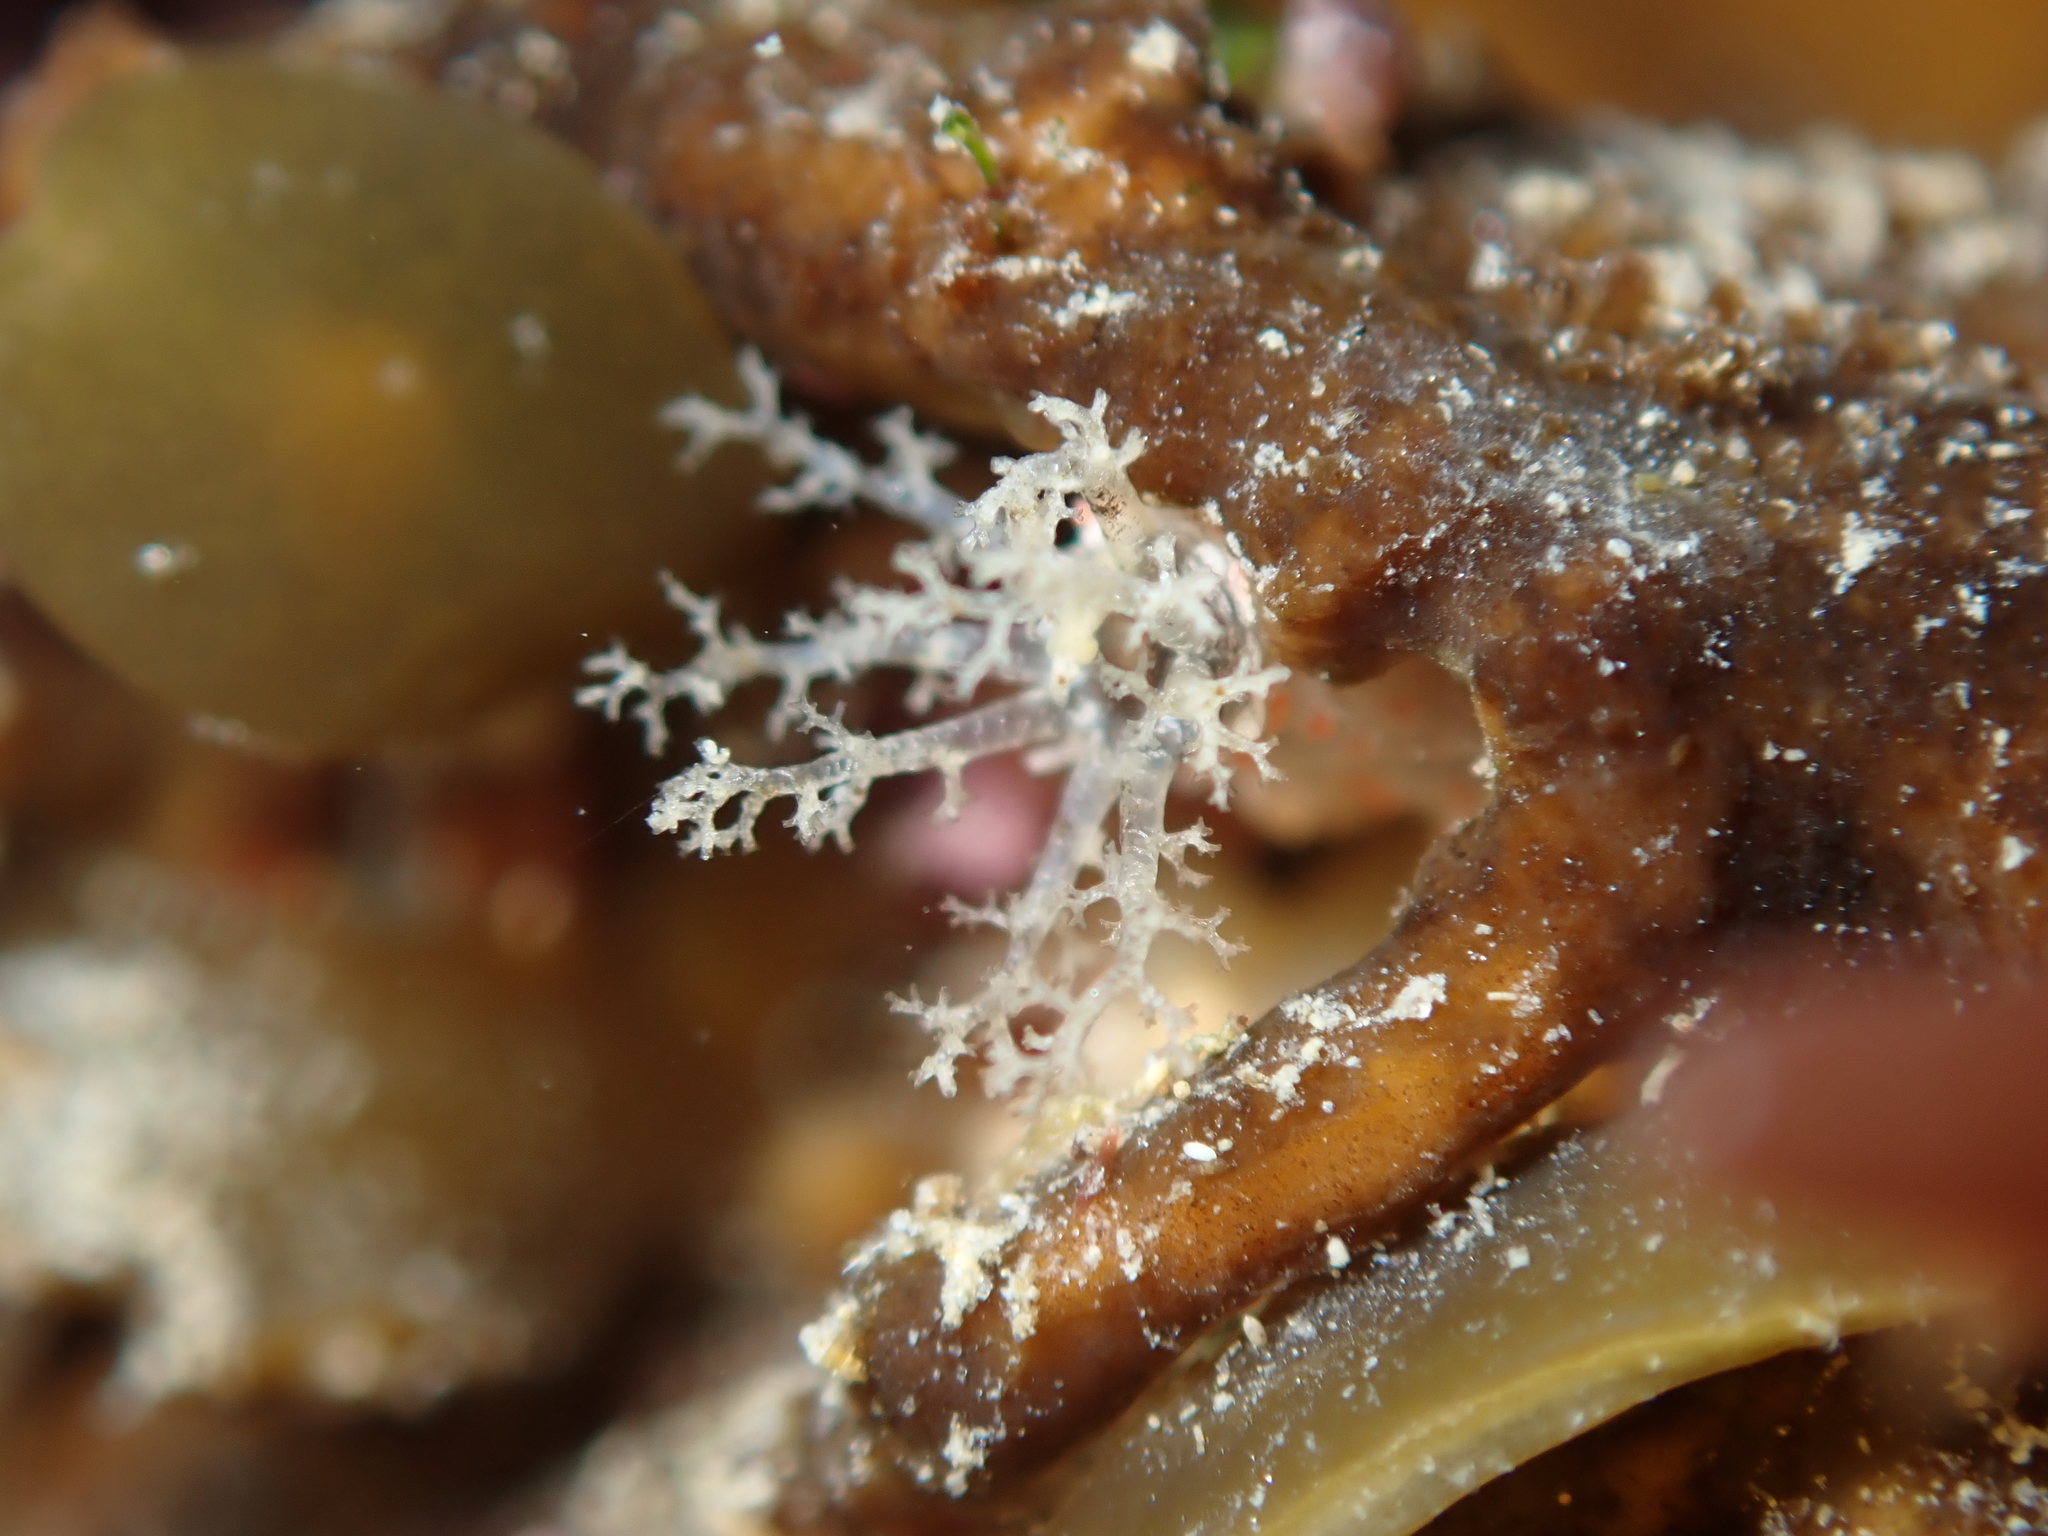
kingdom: Animalia
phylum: Echinodermata
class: Holothuroidea
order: Dendrochirotida
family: Cucumariidae
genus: Australocnus
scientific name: Australocnus calcareus
